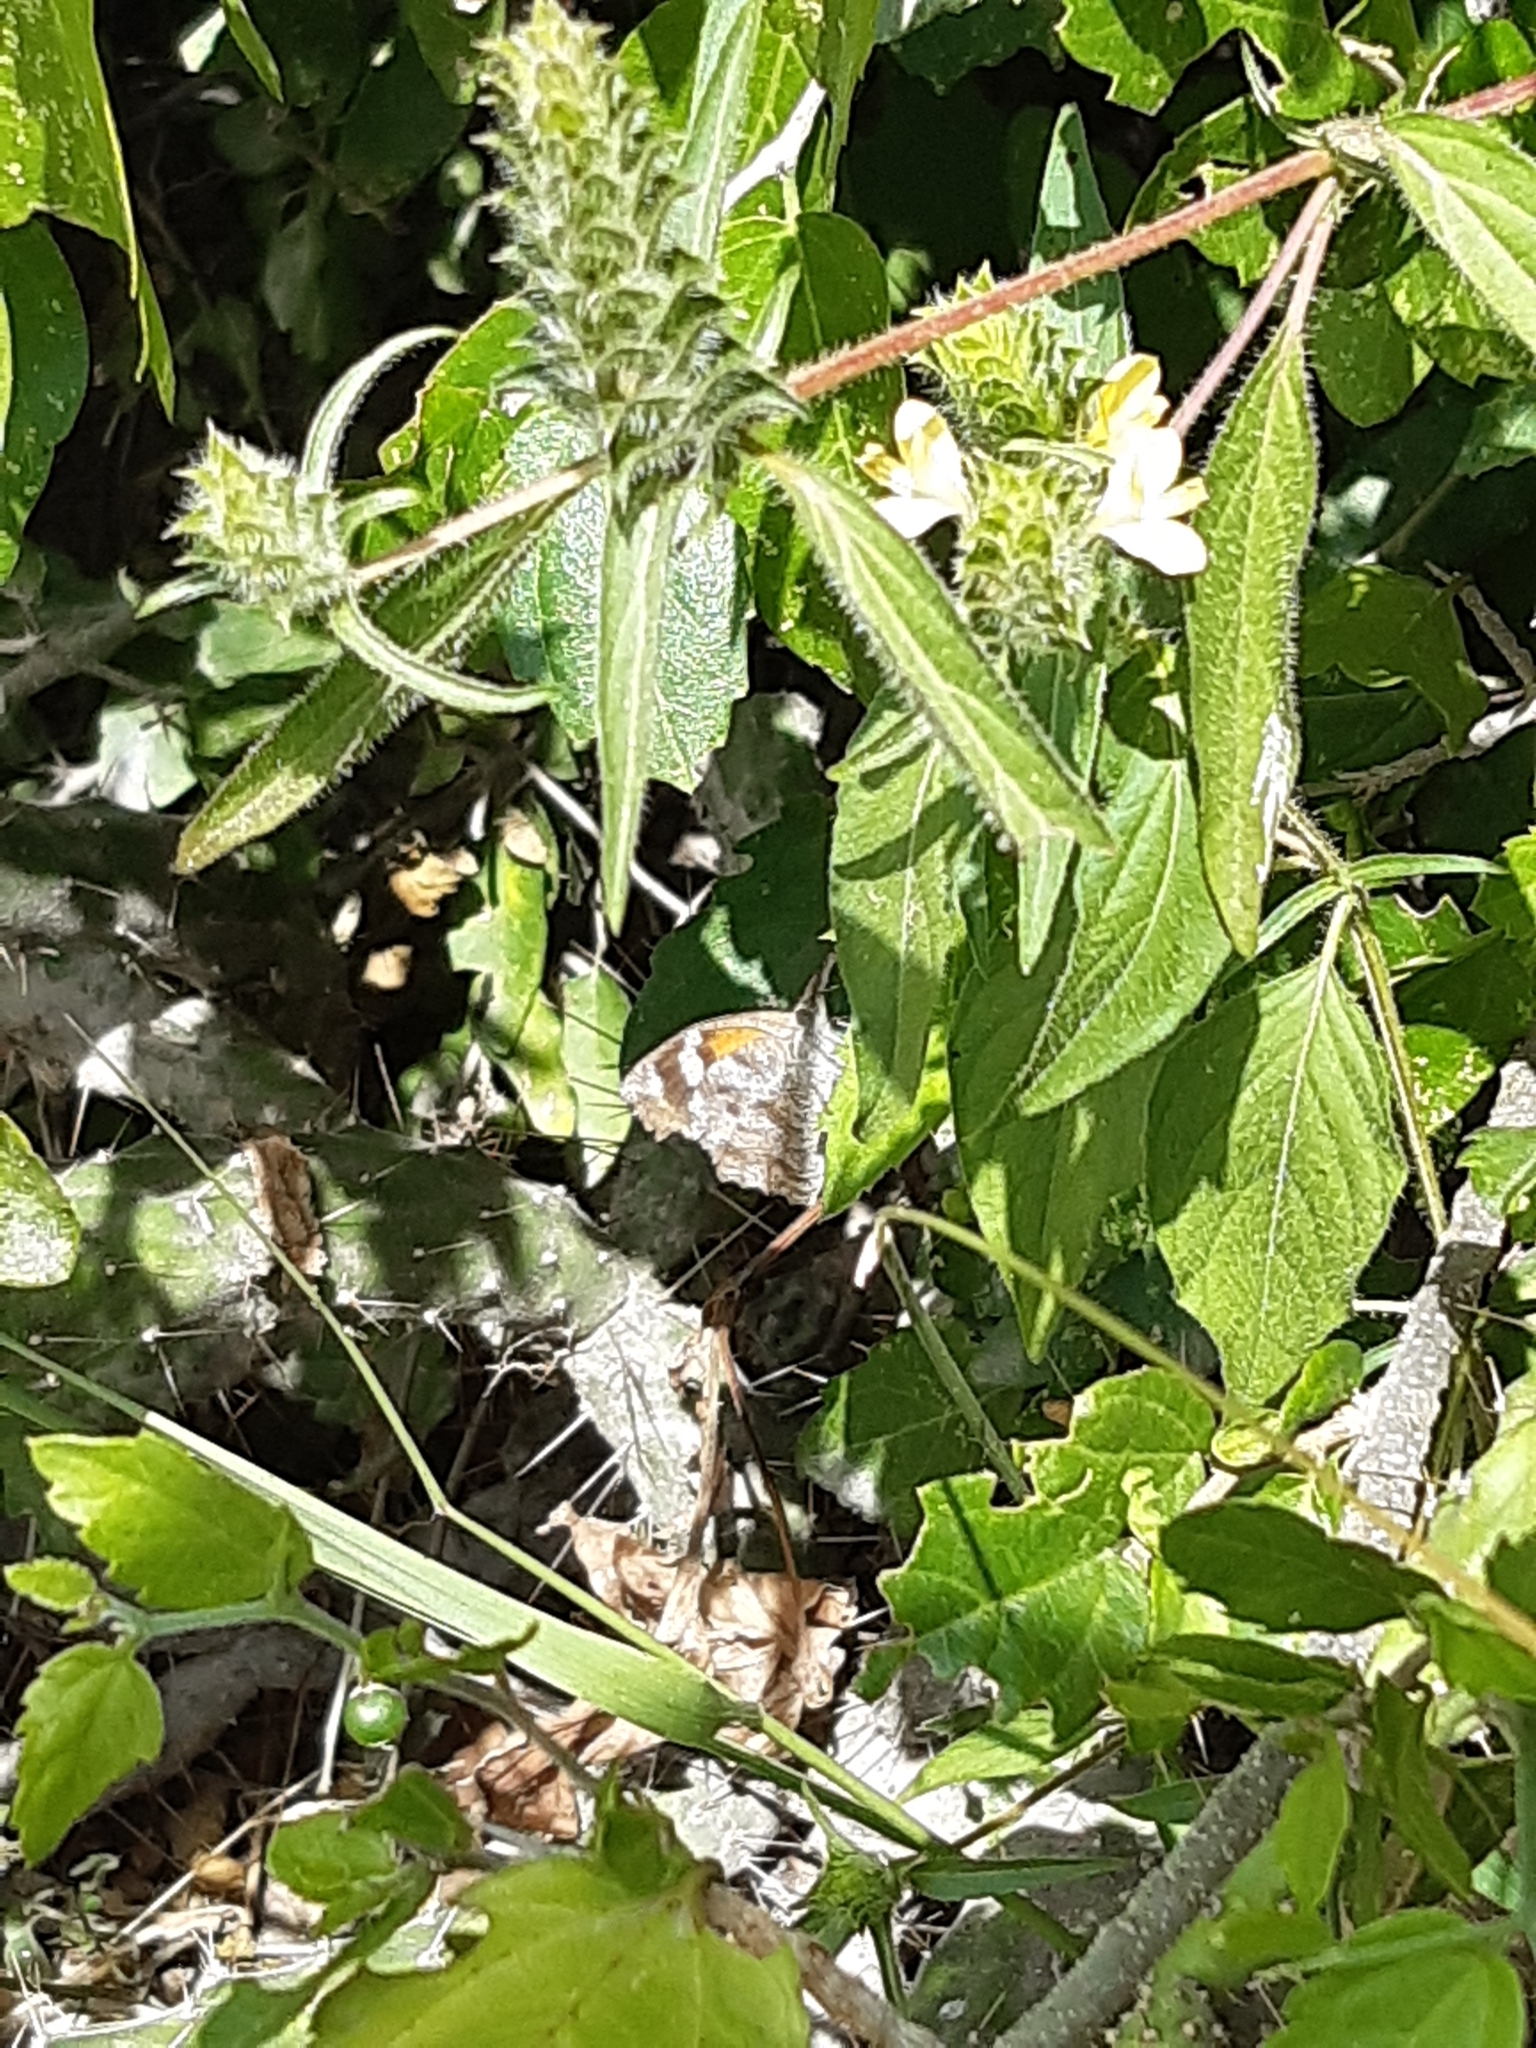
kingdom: Animalia
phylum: Arthropoda
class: Insecta
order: Lepidoptera
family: Nymphalidae
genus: Libytheana
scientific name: Libytheana carinenta
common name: American snout
